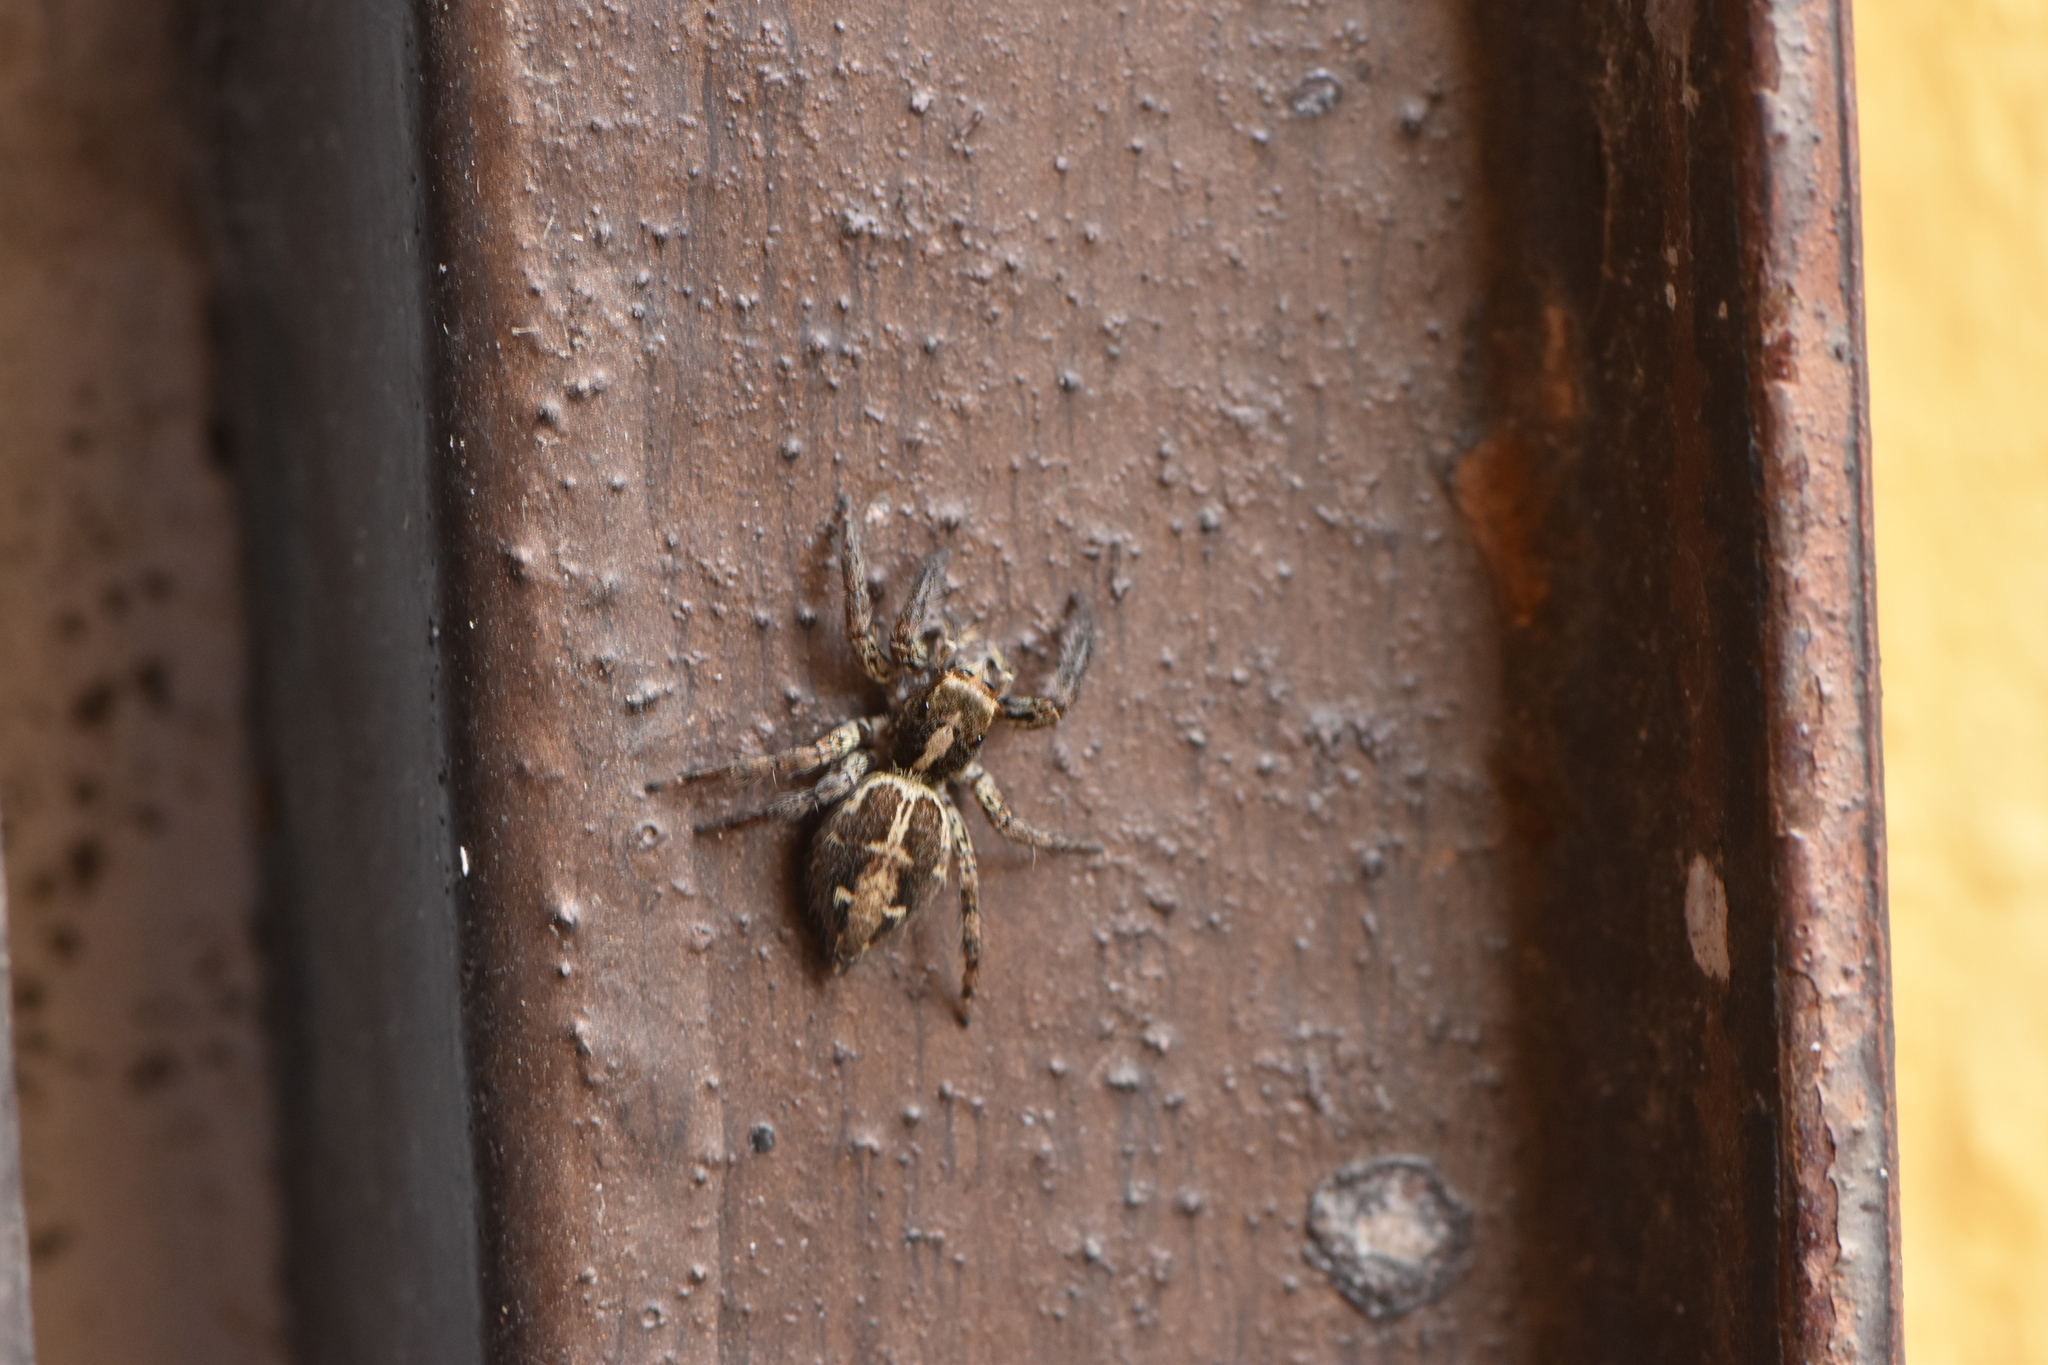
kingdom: Animalia
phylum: Arthropoda
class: Arachnida
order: Araneae
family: Salticidae
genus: Plexippus
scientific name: Plexippus paykulli
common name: Pantropical jumper
